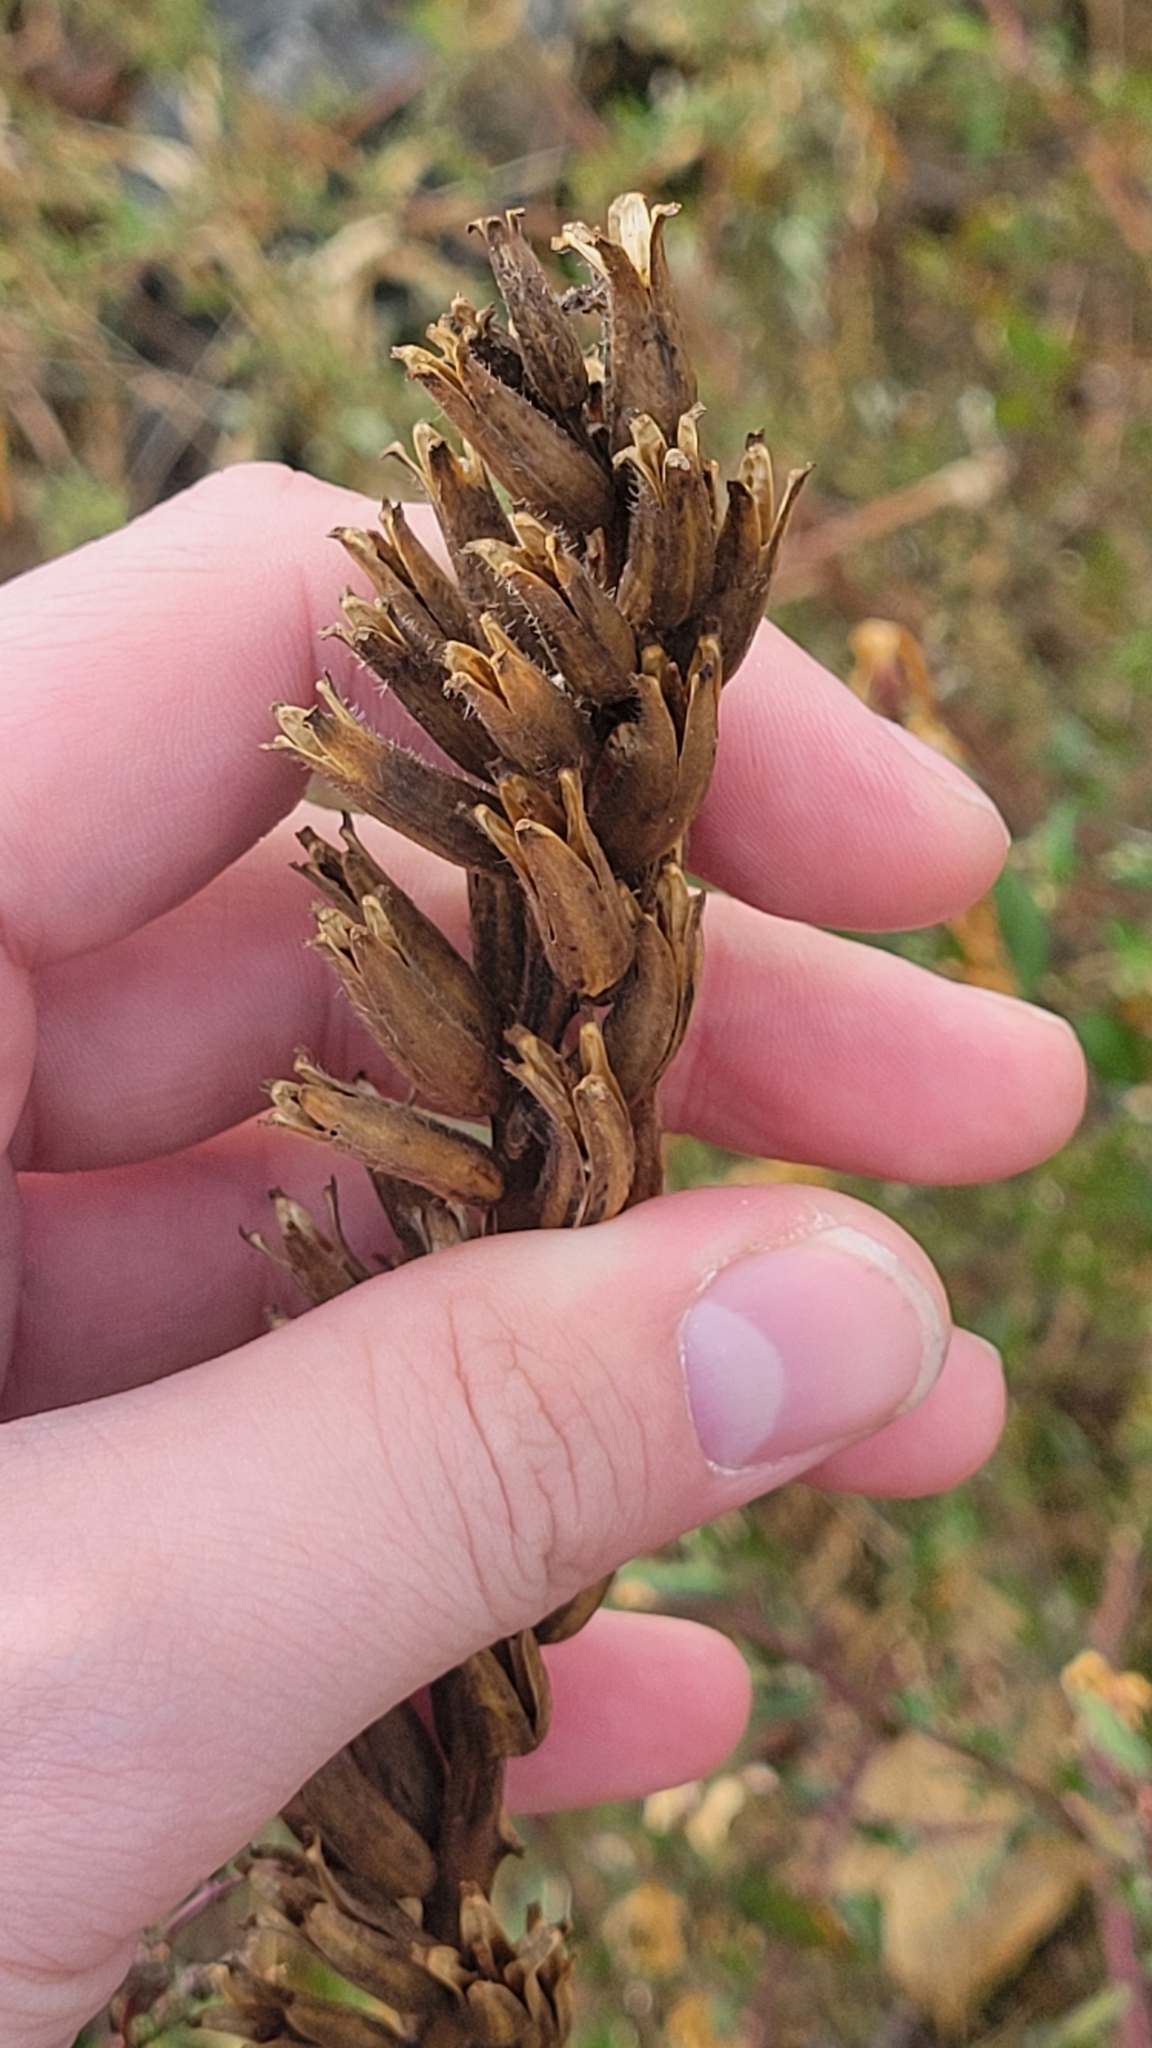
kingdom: Plantae
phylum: Tracheophyta
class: Magnoliopsida
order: Myrtales
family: Onagraceae
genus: Oenothera
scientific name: Oenothera biennis
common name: Common evening-primrose
